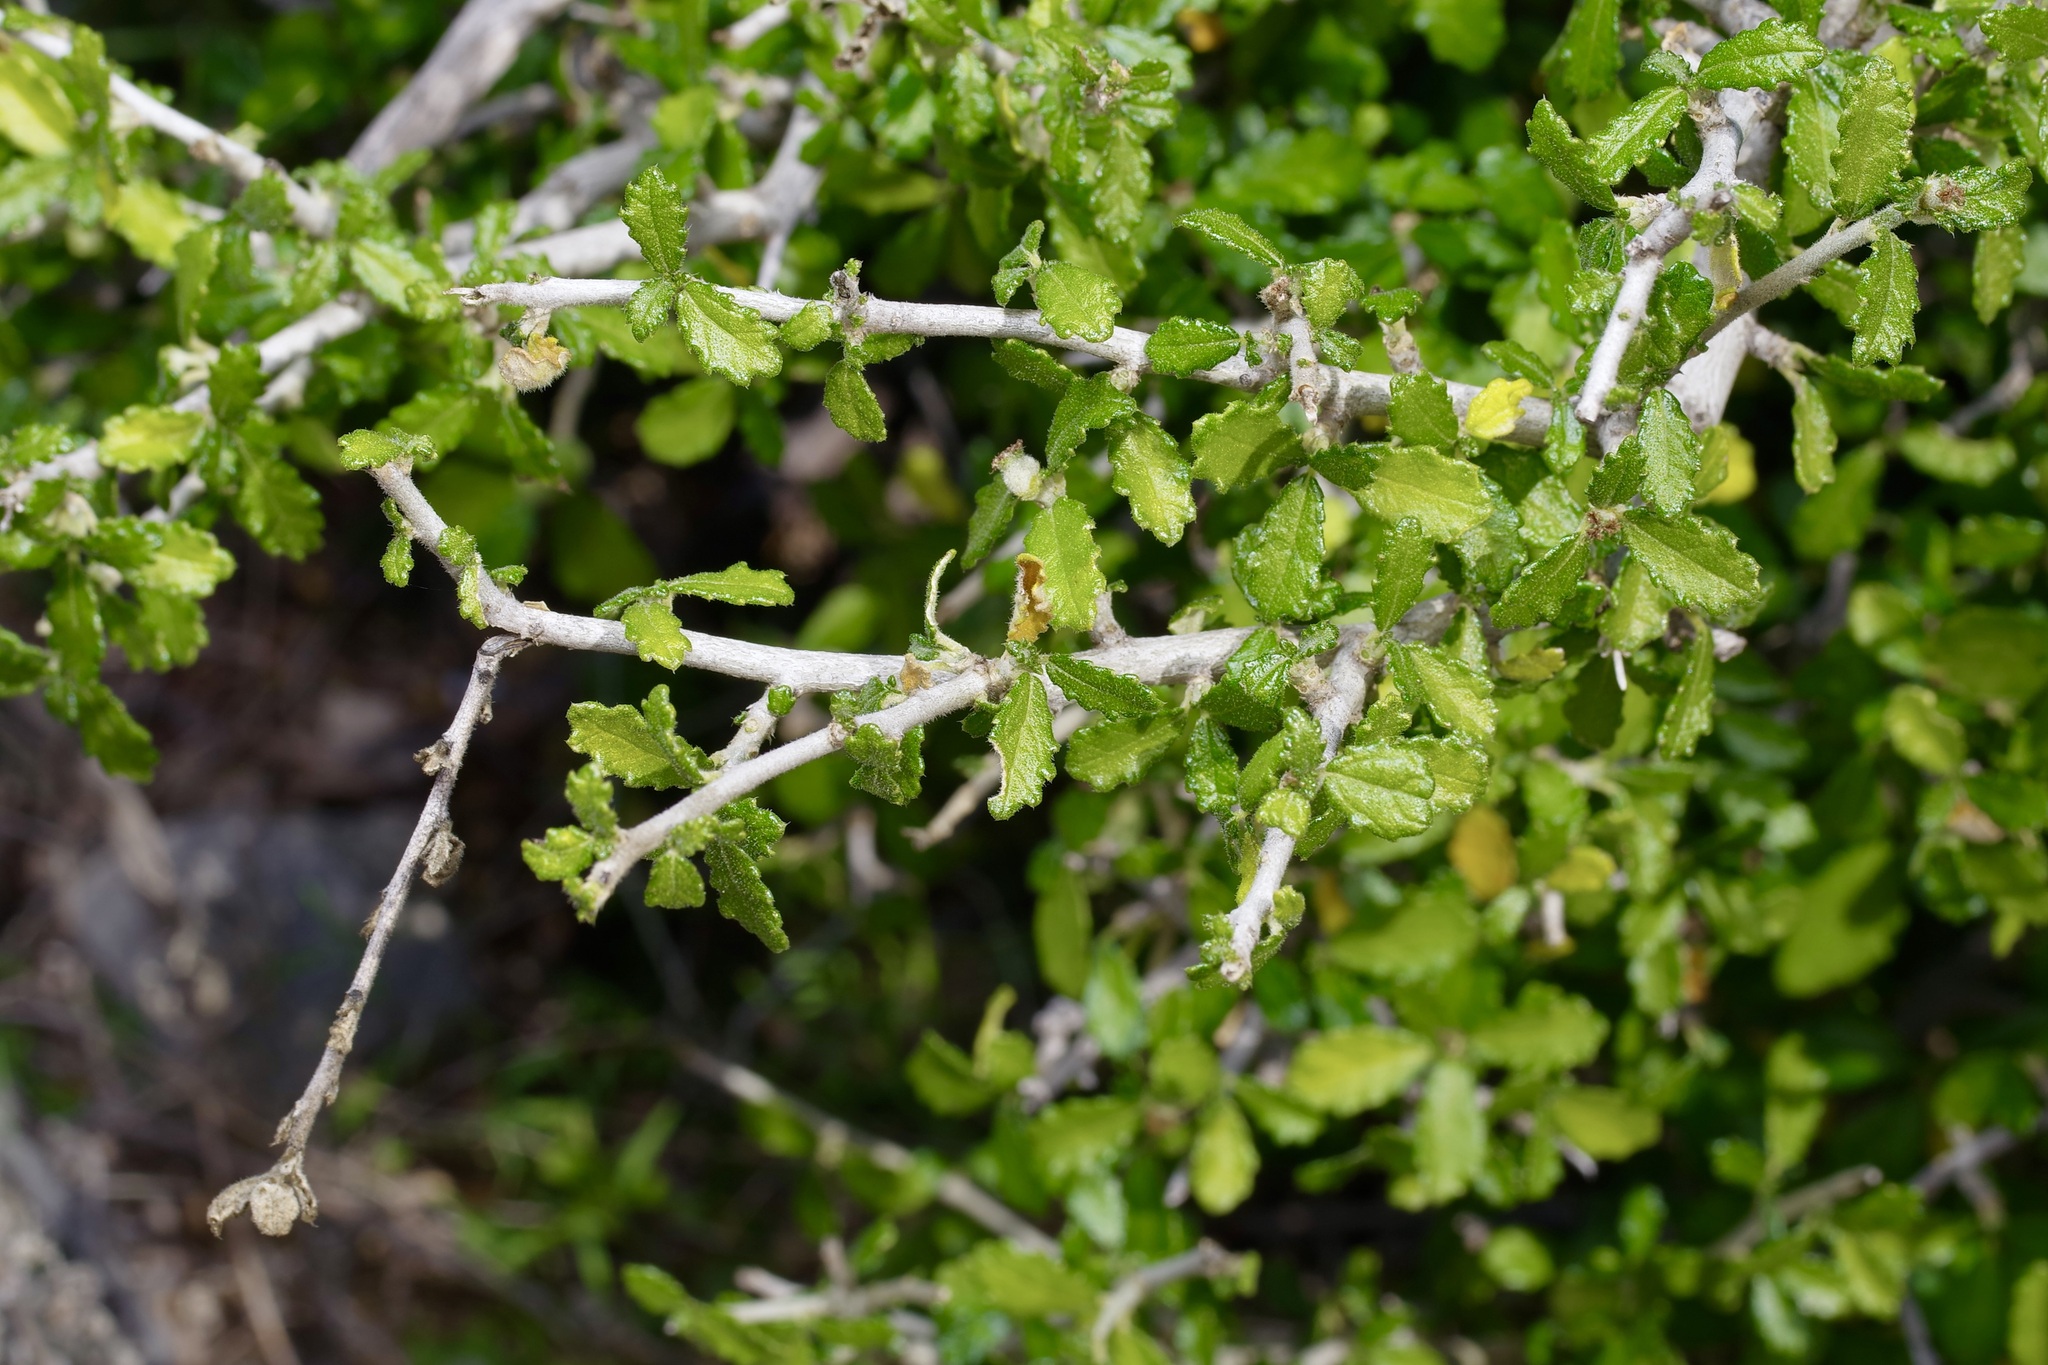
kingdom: Plantae
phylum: Tracheophyta
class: Magnoliopsida
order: Malpighiales
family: Euphorbiaceae
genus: Bernardia
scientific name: Bernardia myricifolia
